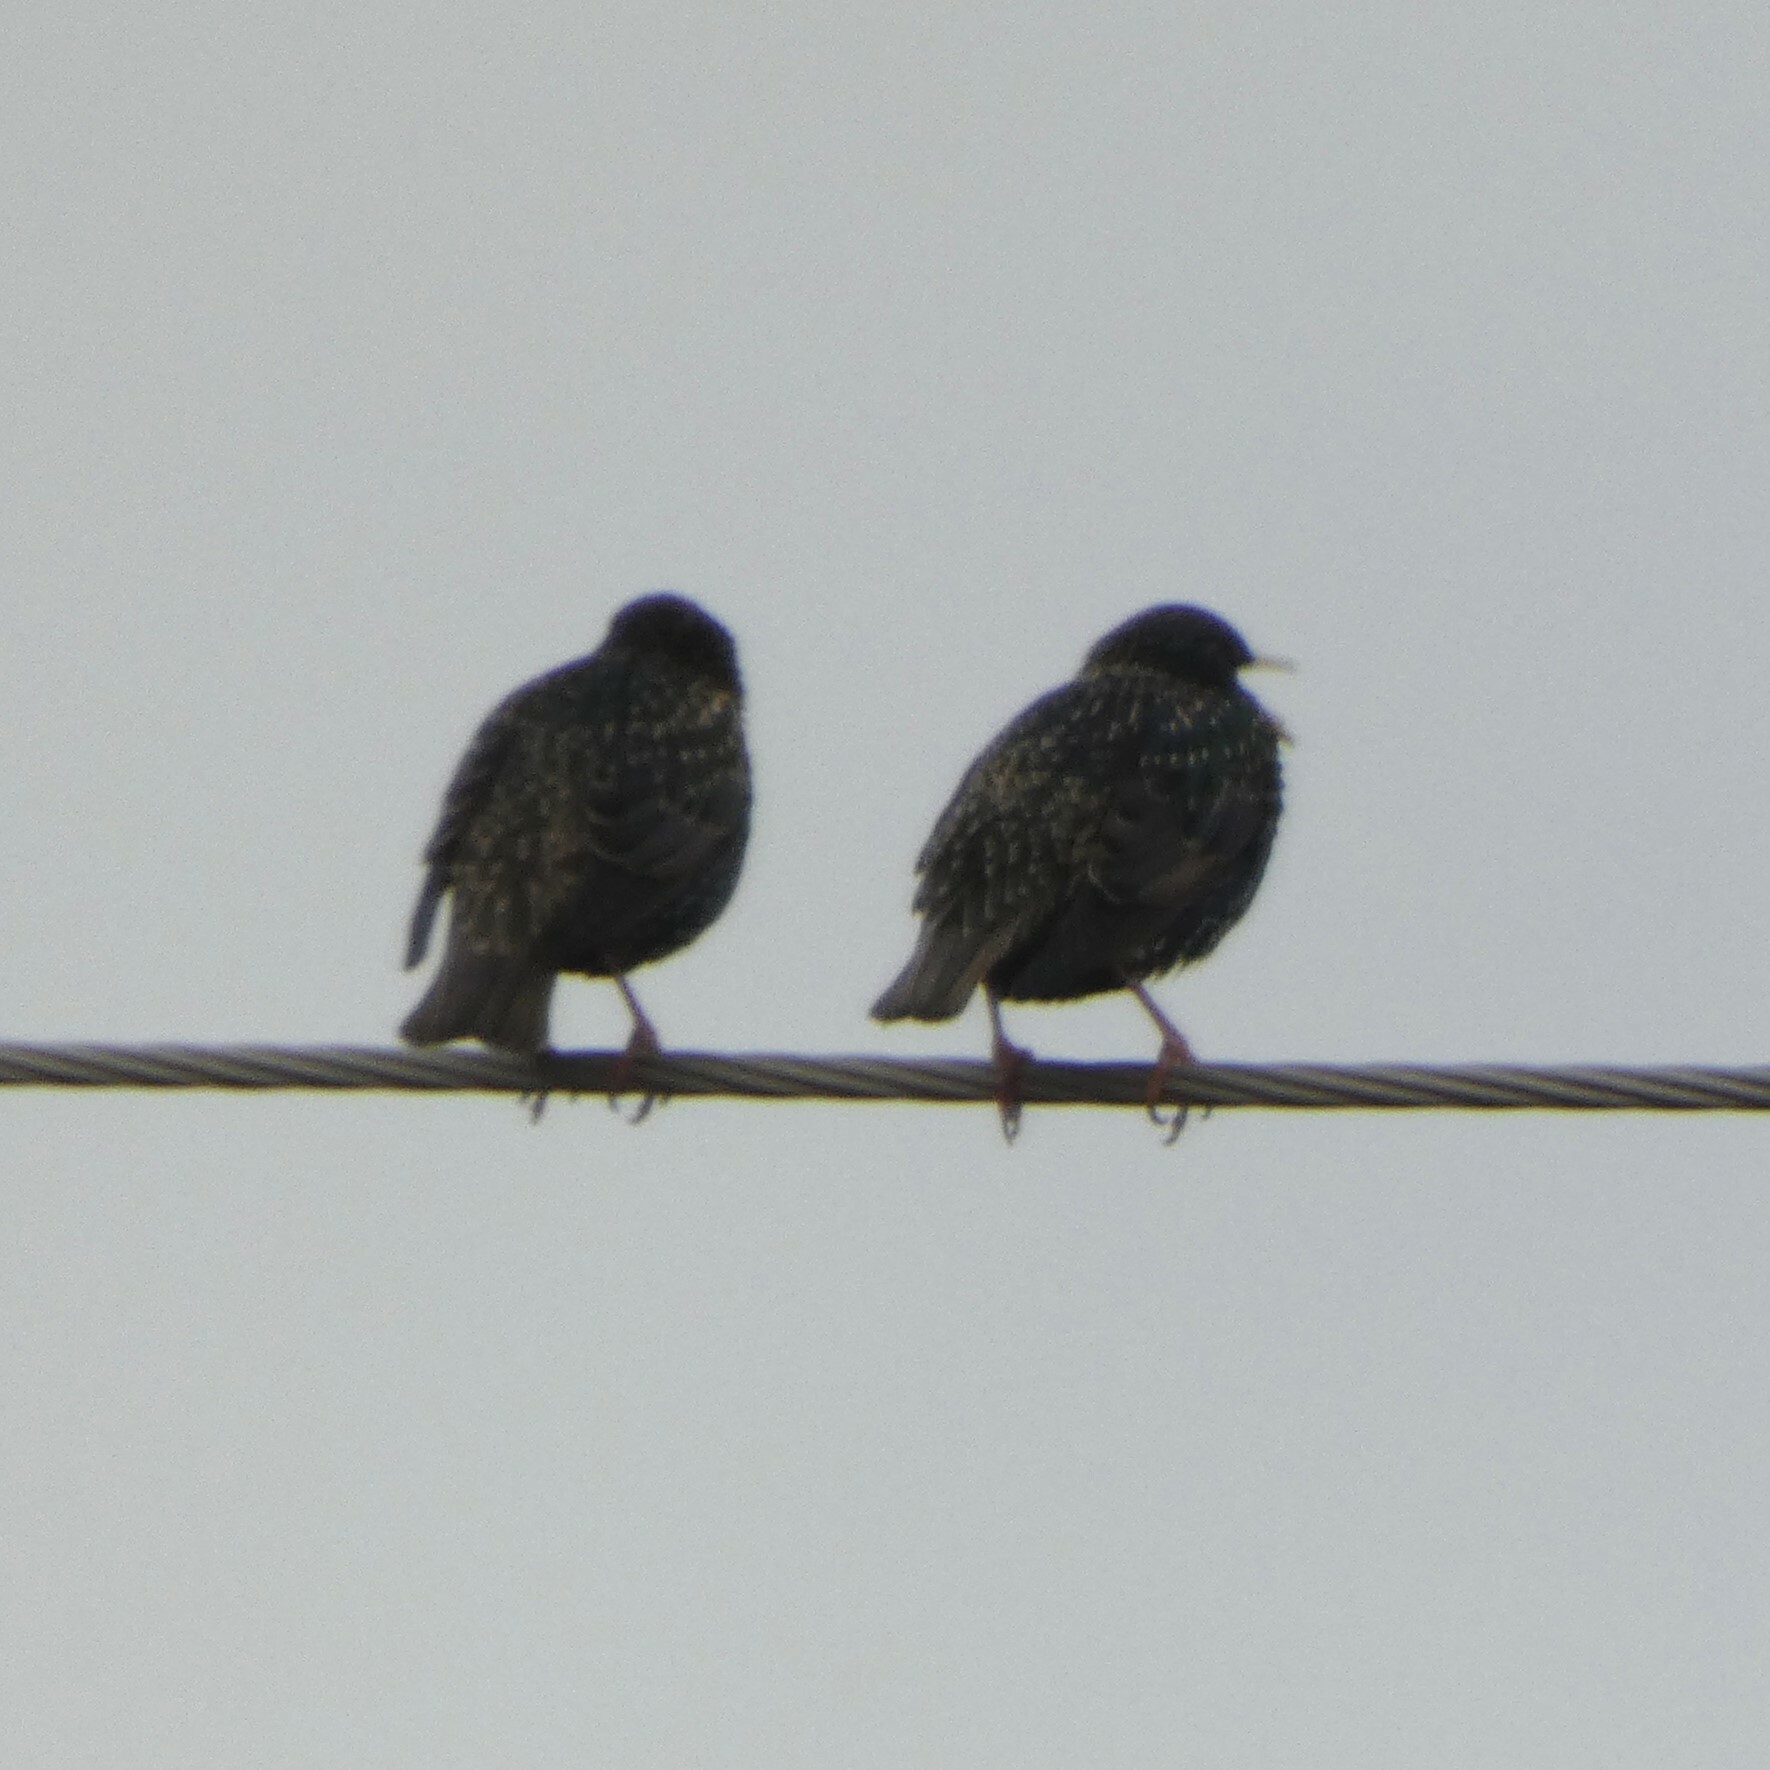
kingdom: Animalia
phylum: Chordata
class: Aves
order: Passeriformes
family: Sturnidae
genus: Sturnus
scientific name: Sturnus vulgaris
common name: Common starling
